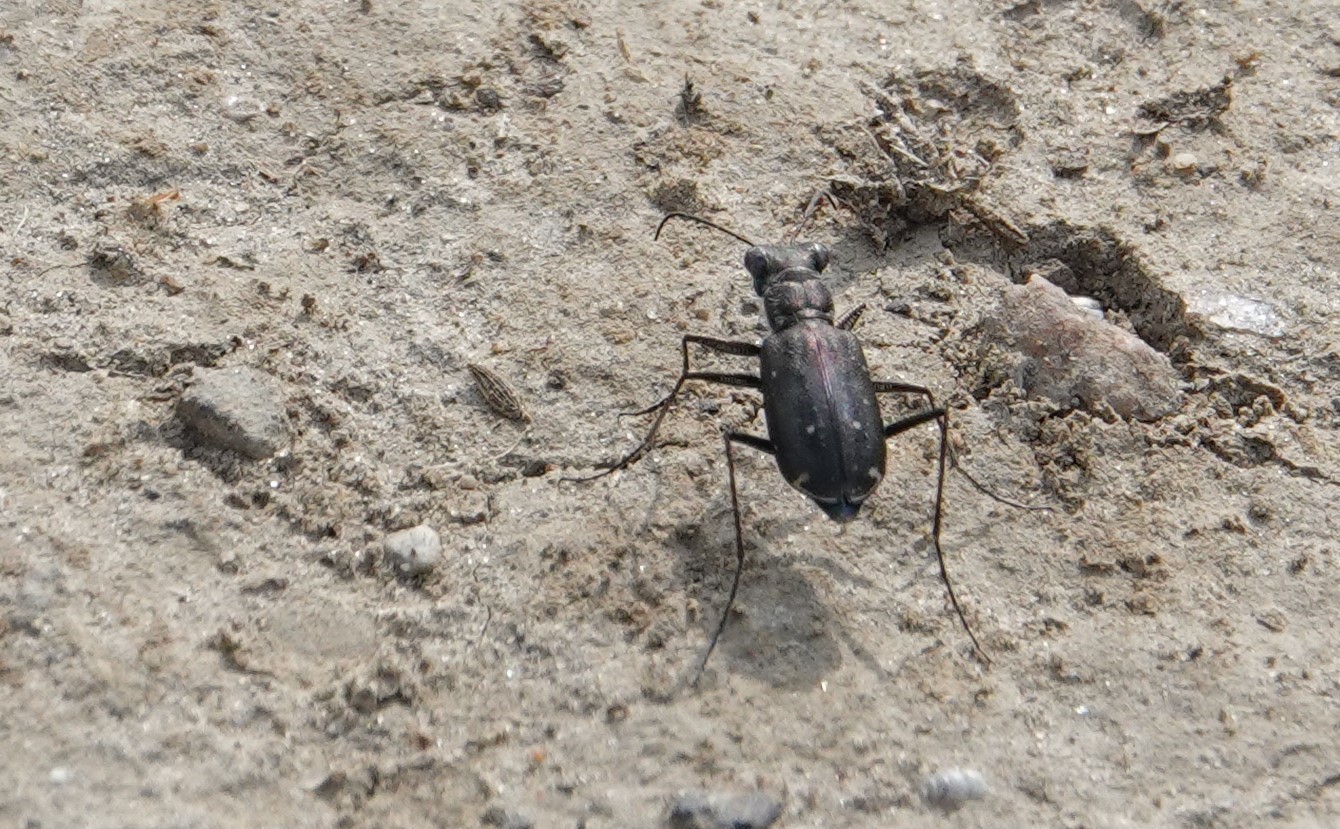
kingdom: Animalia
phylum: Arthropoda
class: Insecta
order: Coleoptera
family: Carabidae
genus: Cicindela
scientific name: Cicindela punctulata
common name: Punctured tiger beetle
